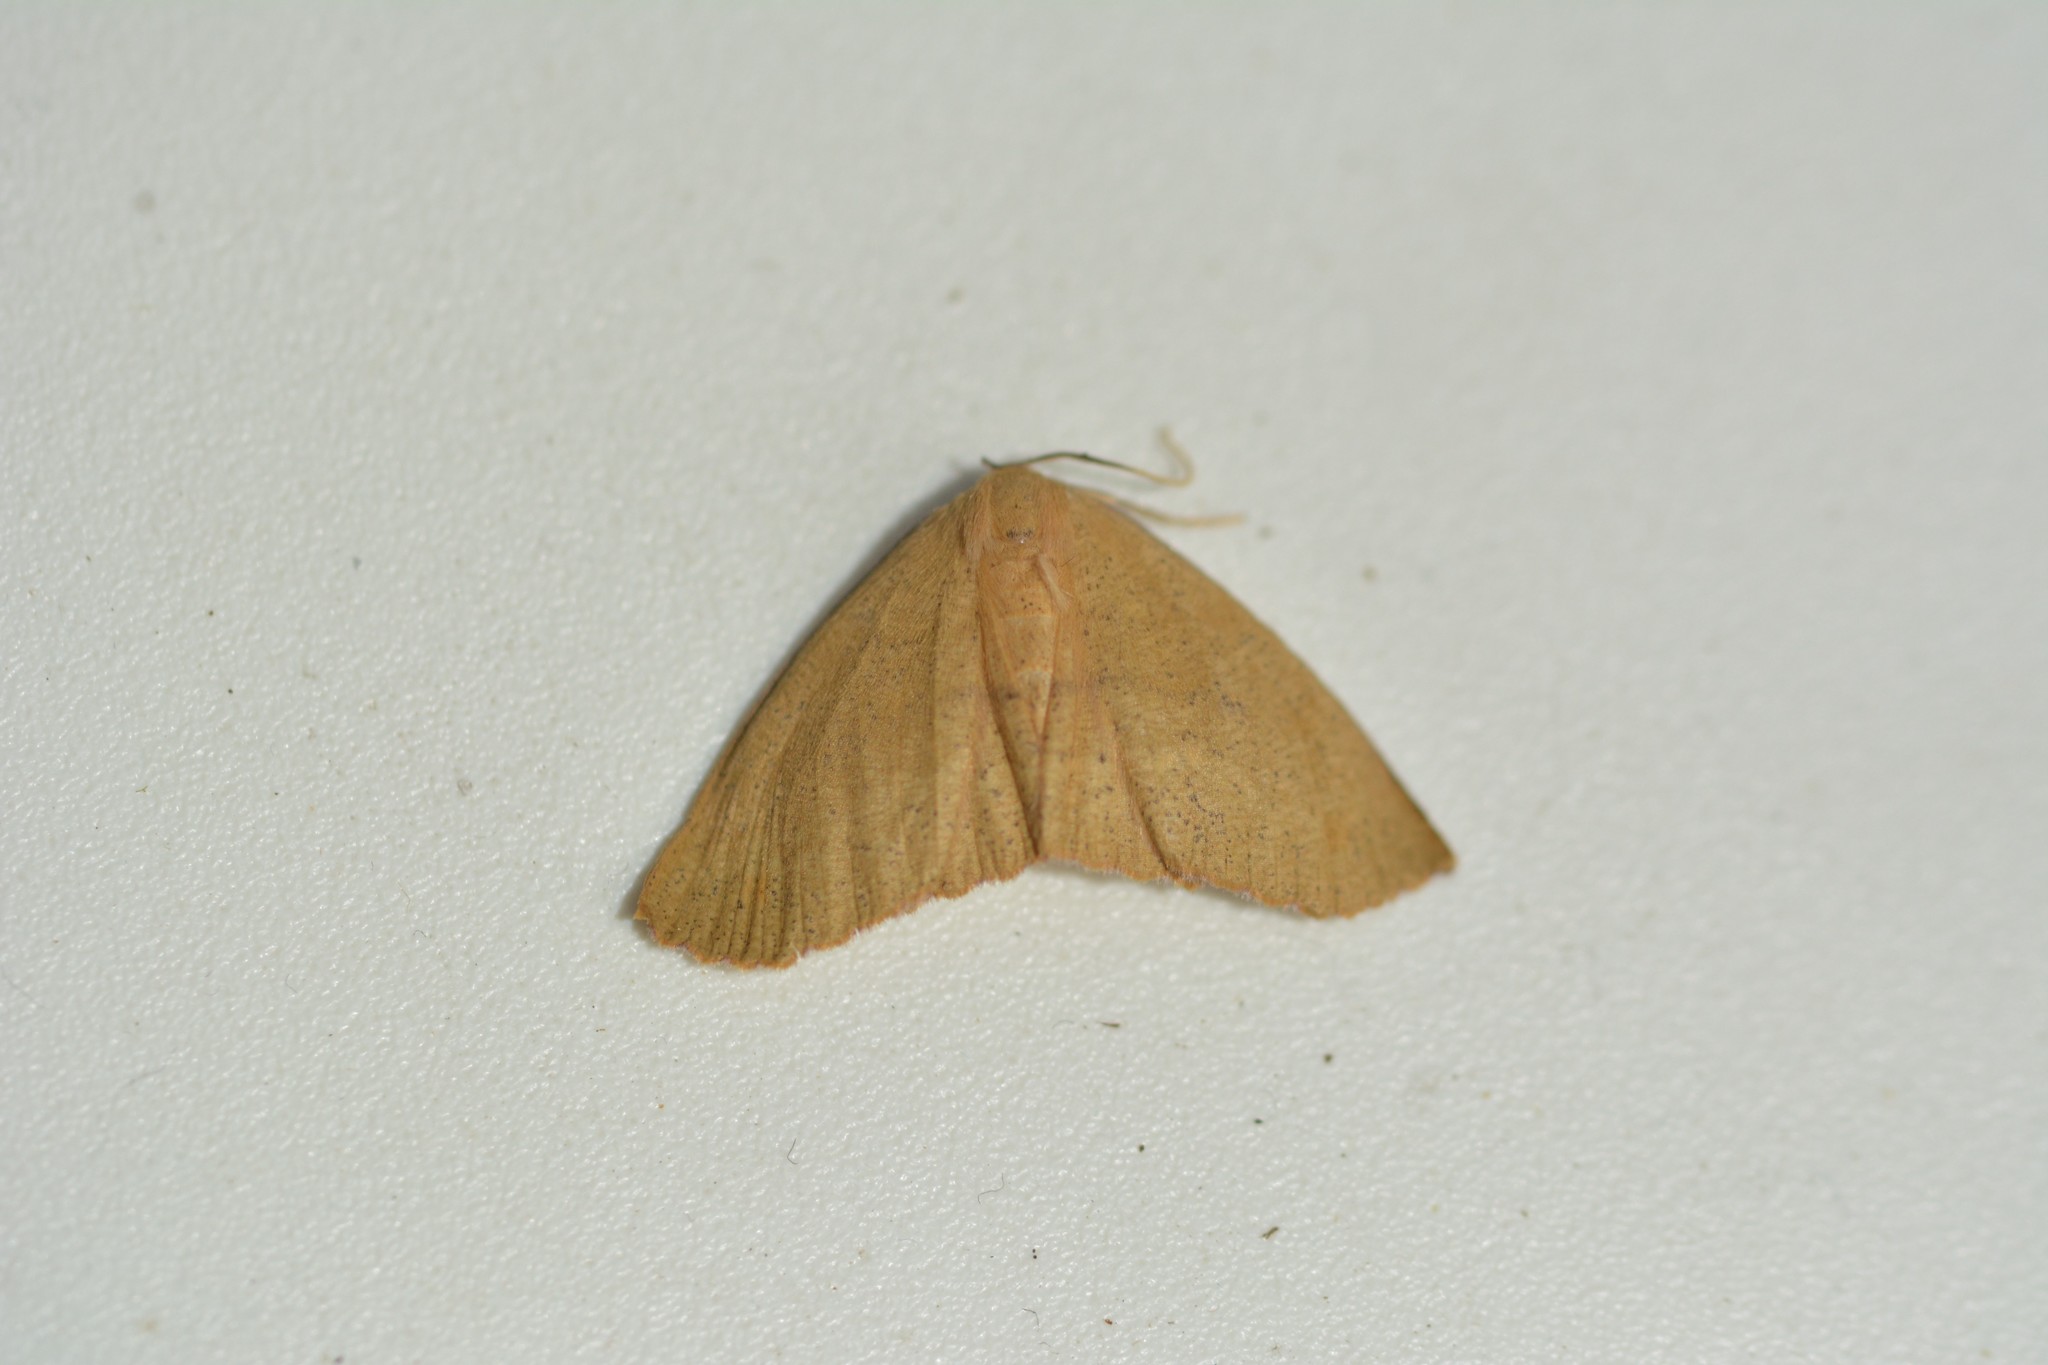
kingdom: Animalia
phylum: Arthropoda
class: Insecta
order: Lepidoptera
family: Geometridae
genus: Xyridacma
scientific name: Xyridacma alectoraria
